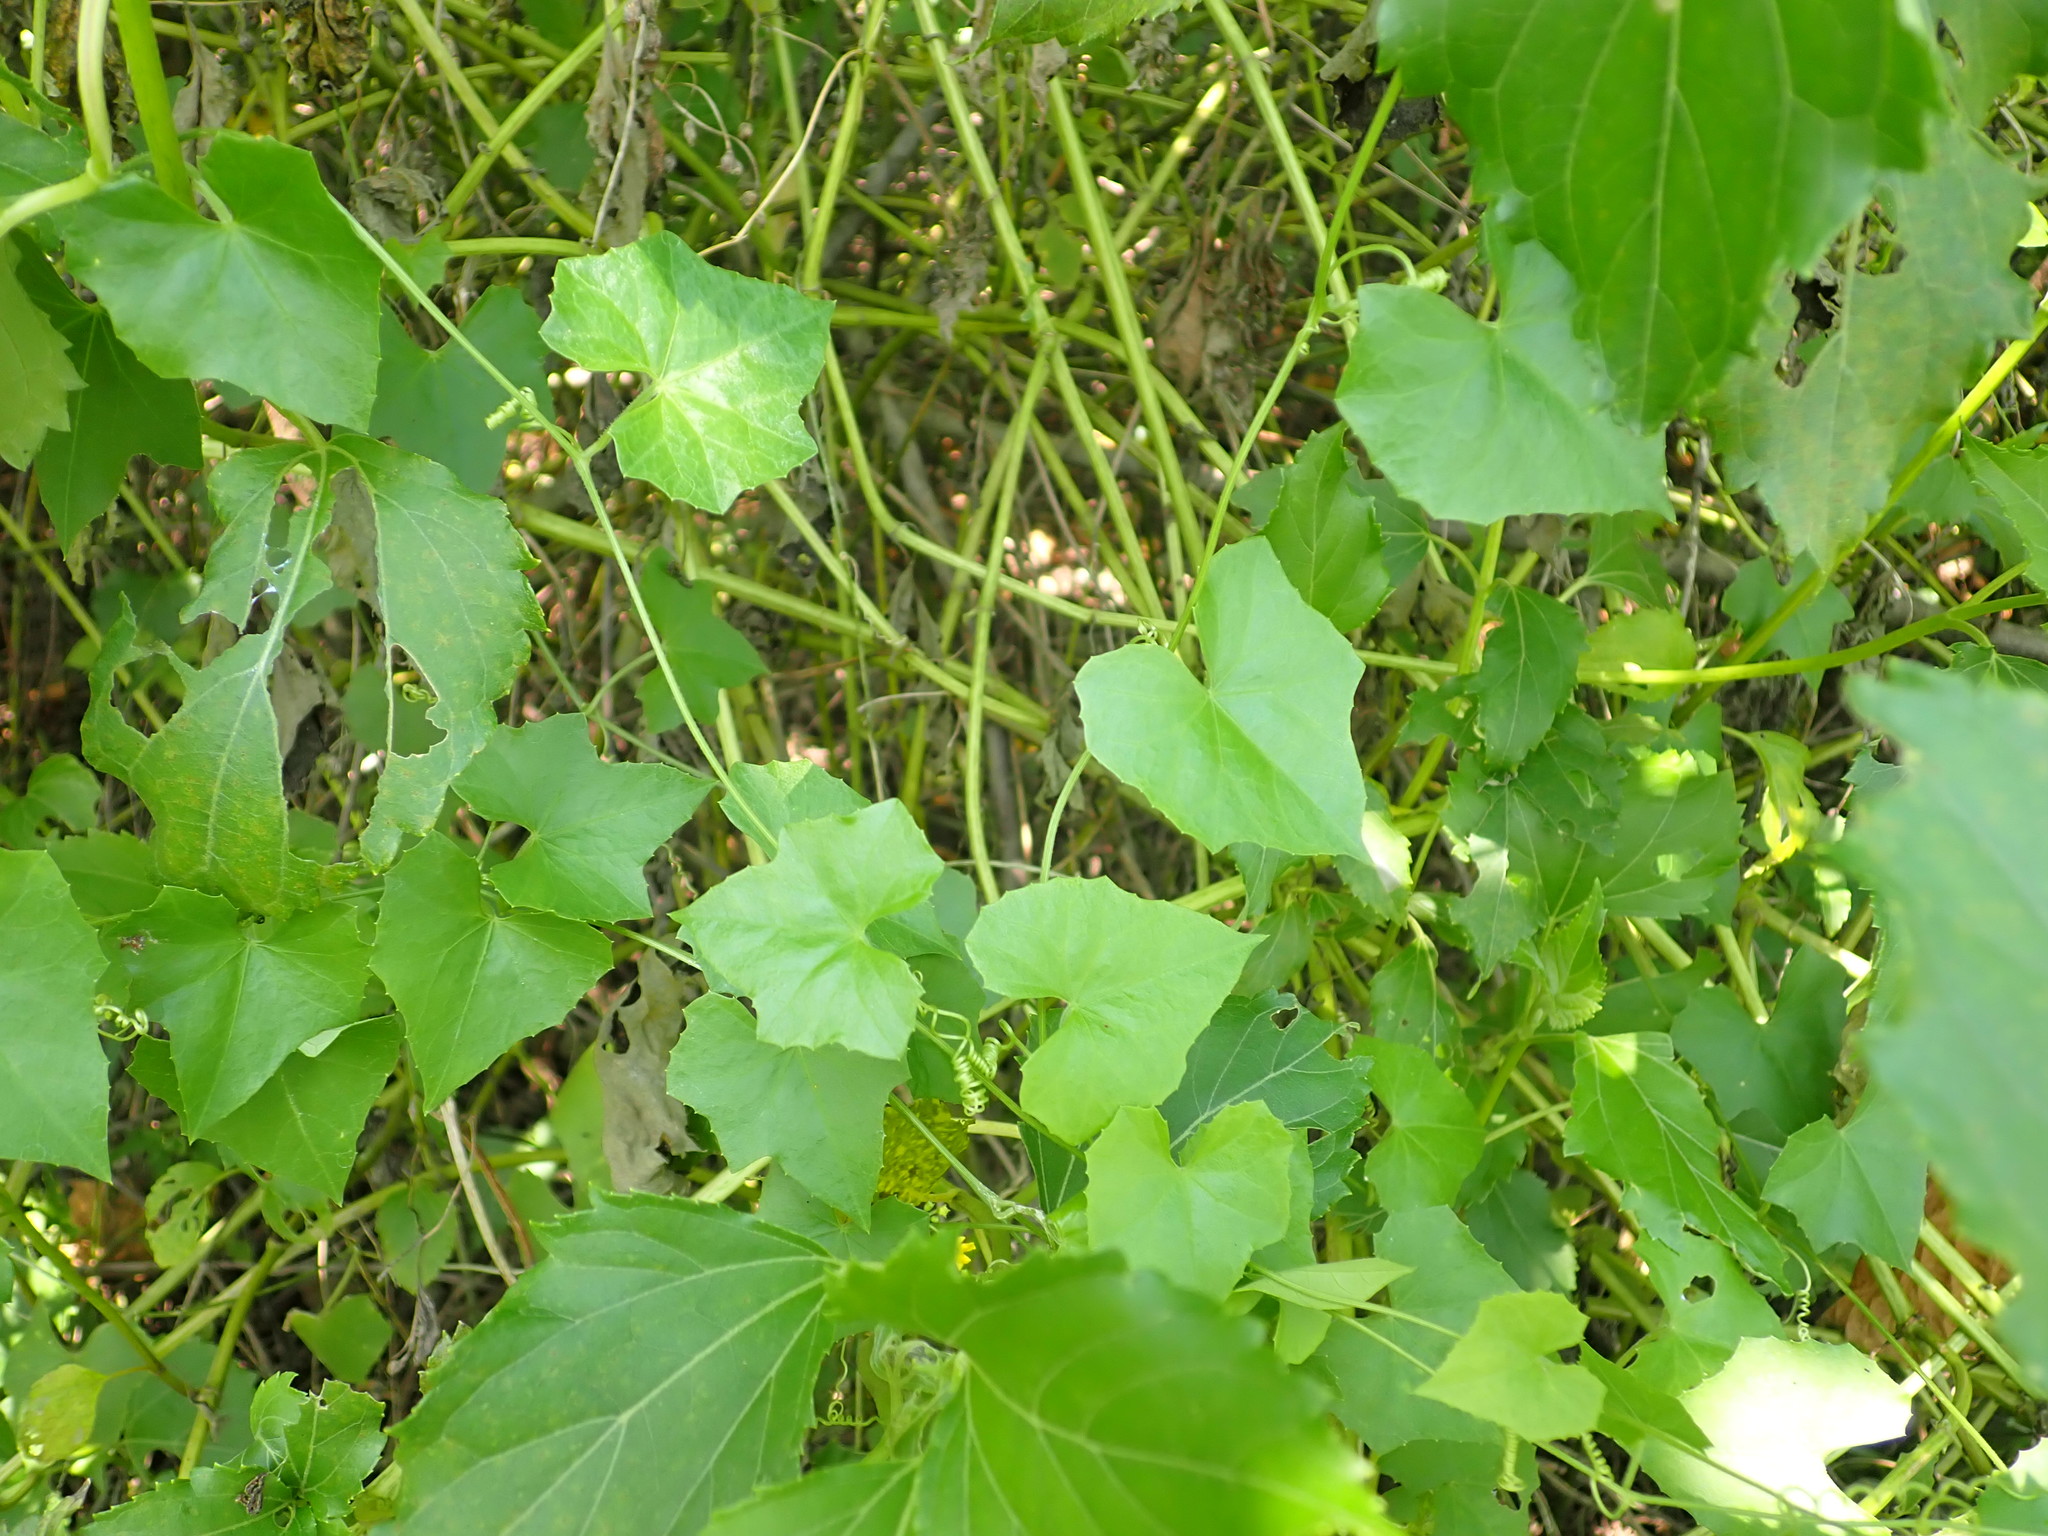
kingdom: Plantae
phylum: Tracheophyta
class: Magnoliopsida
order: Cucurbitales
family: Cucurbitaceae
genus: Melothria
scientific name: Melothria pendula
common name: Creeping-cucumber
